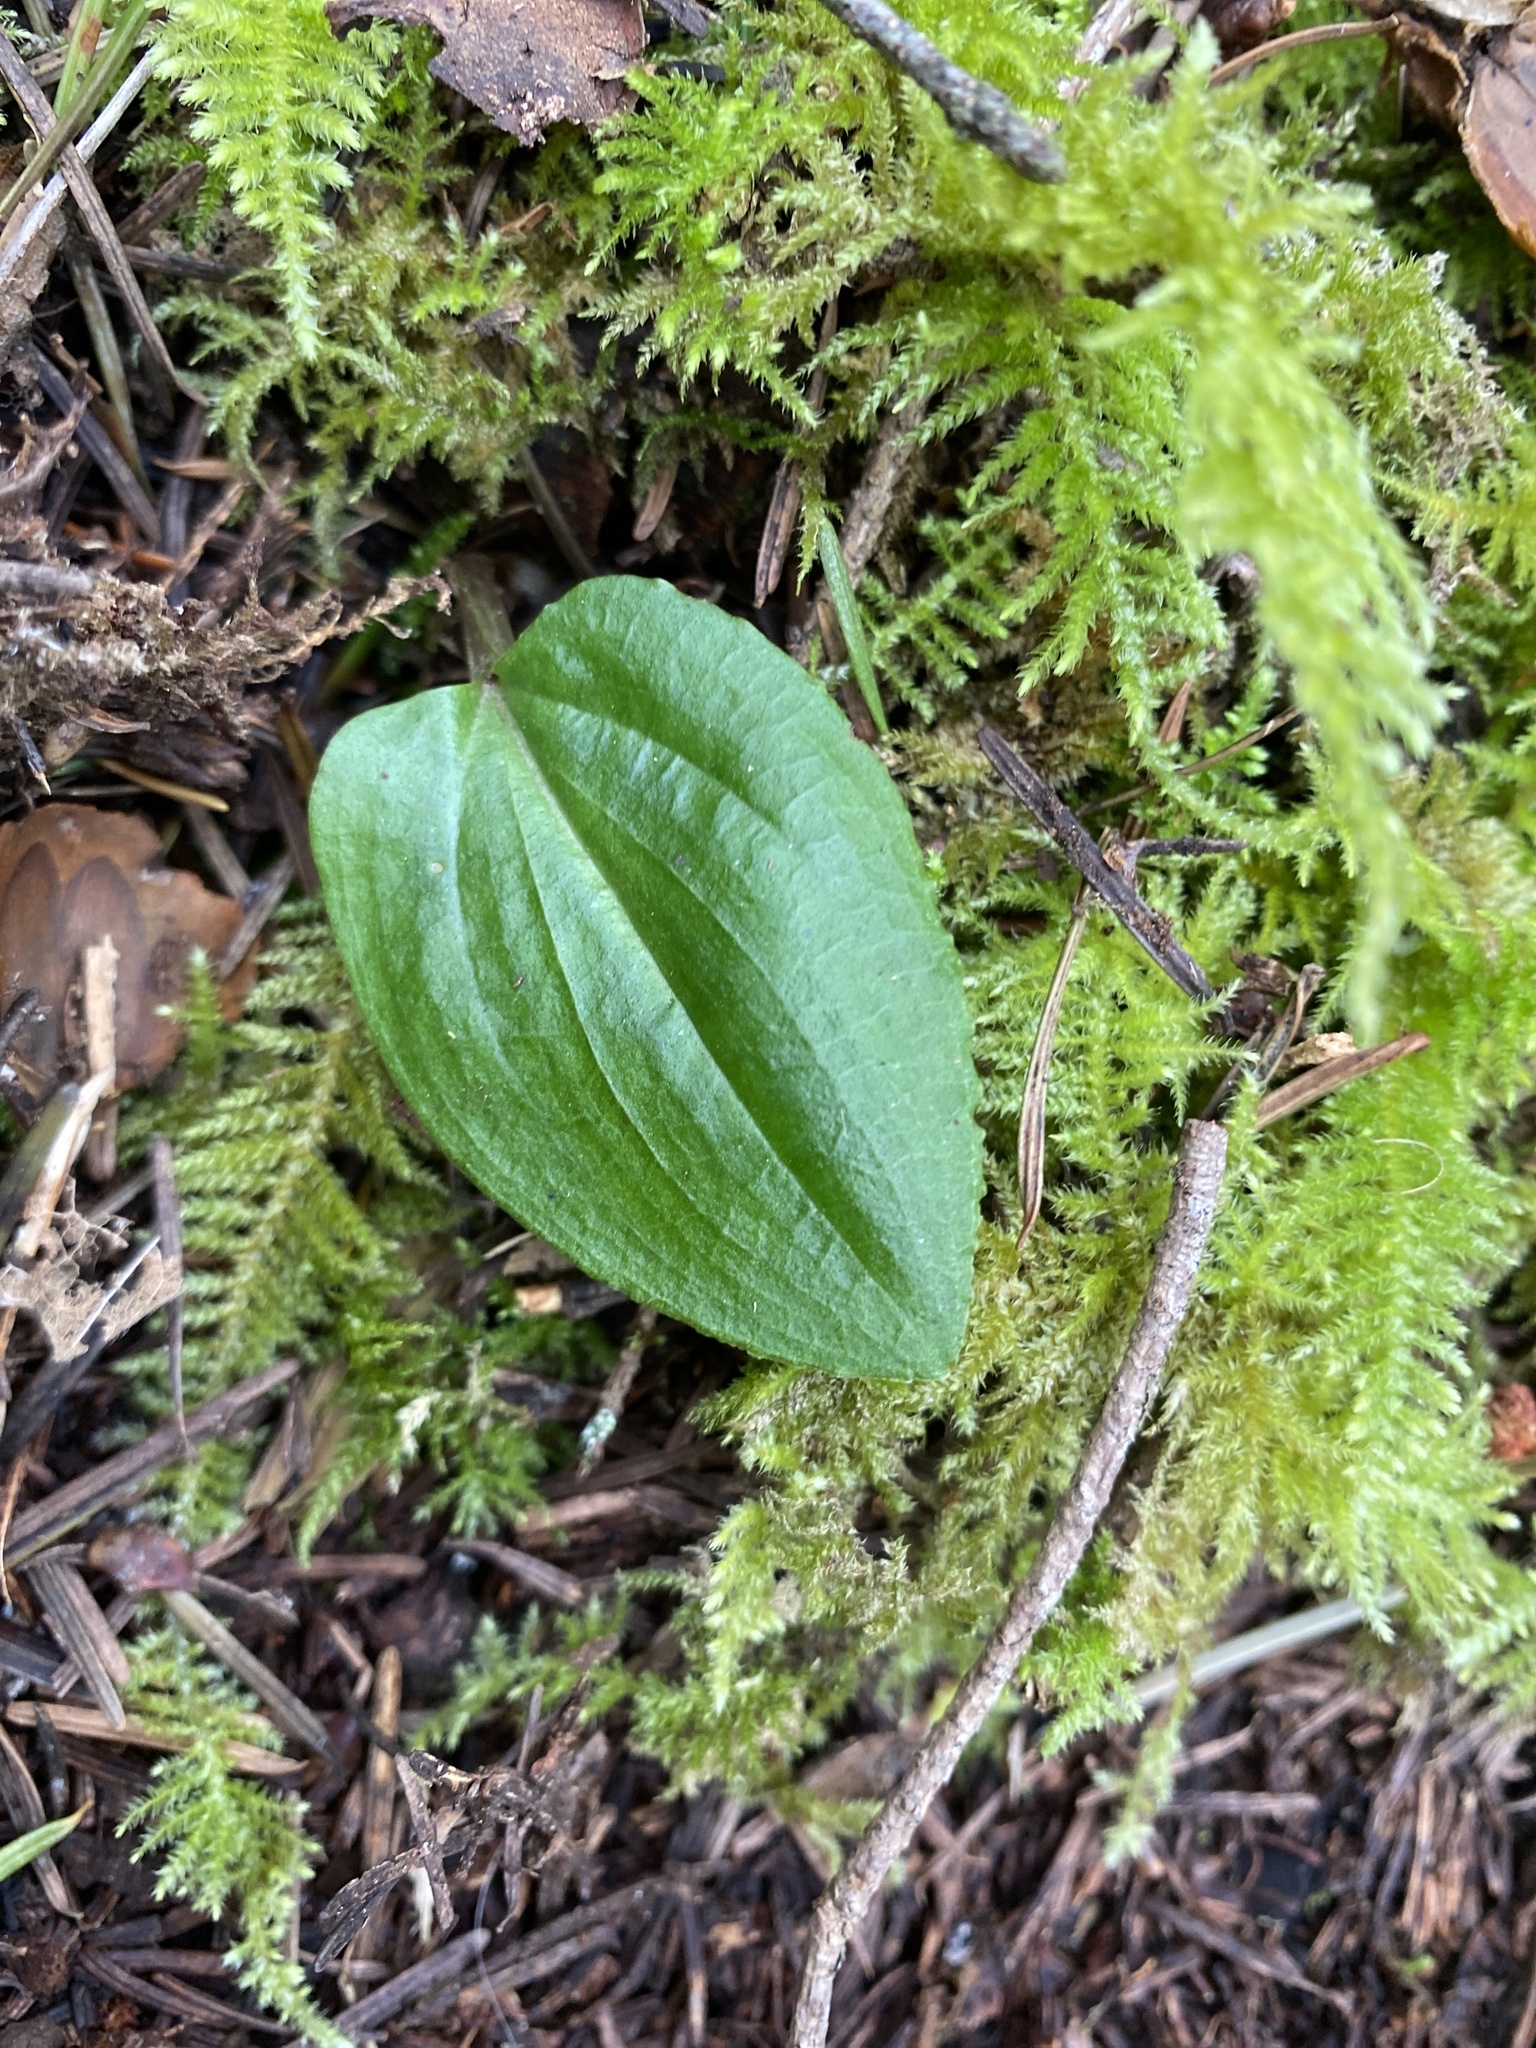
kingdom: Plantae
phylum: Tracheophyta
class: Liliopsida
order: Asparagales
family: Orchidaceae
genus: Calypso
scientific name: Calypso bulbosa
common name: Calypso
